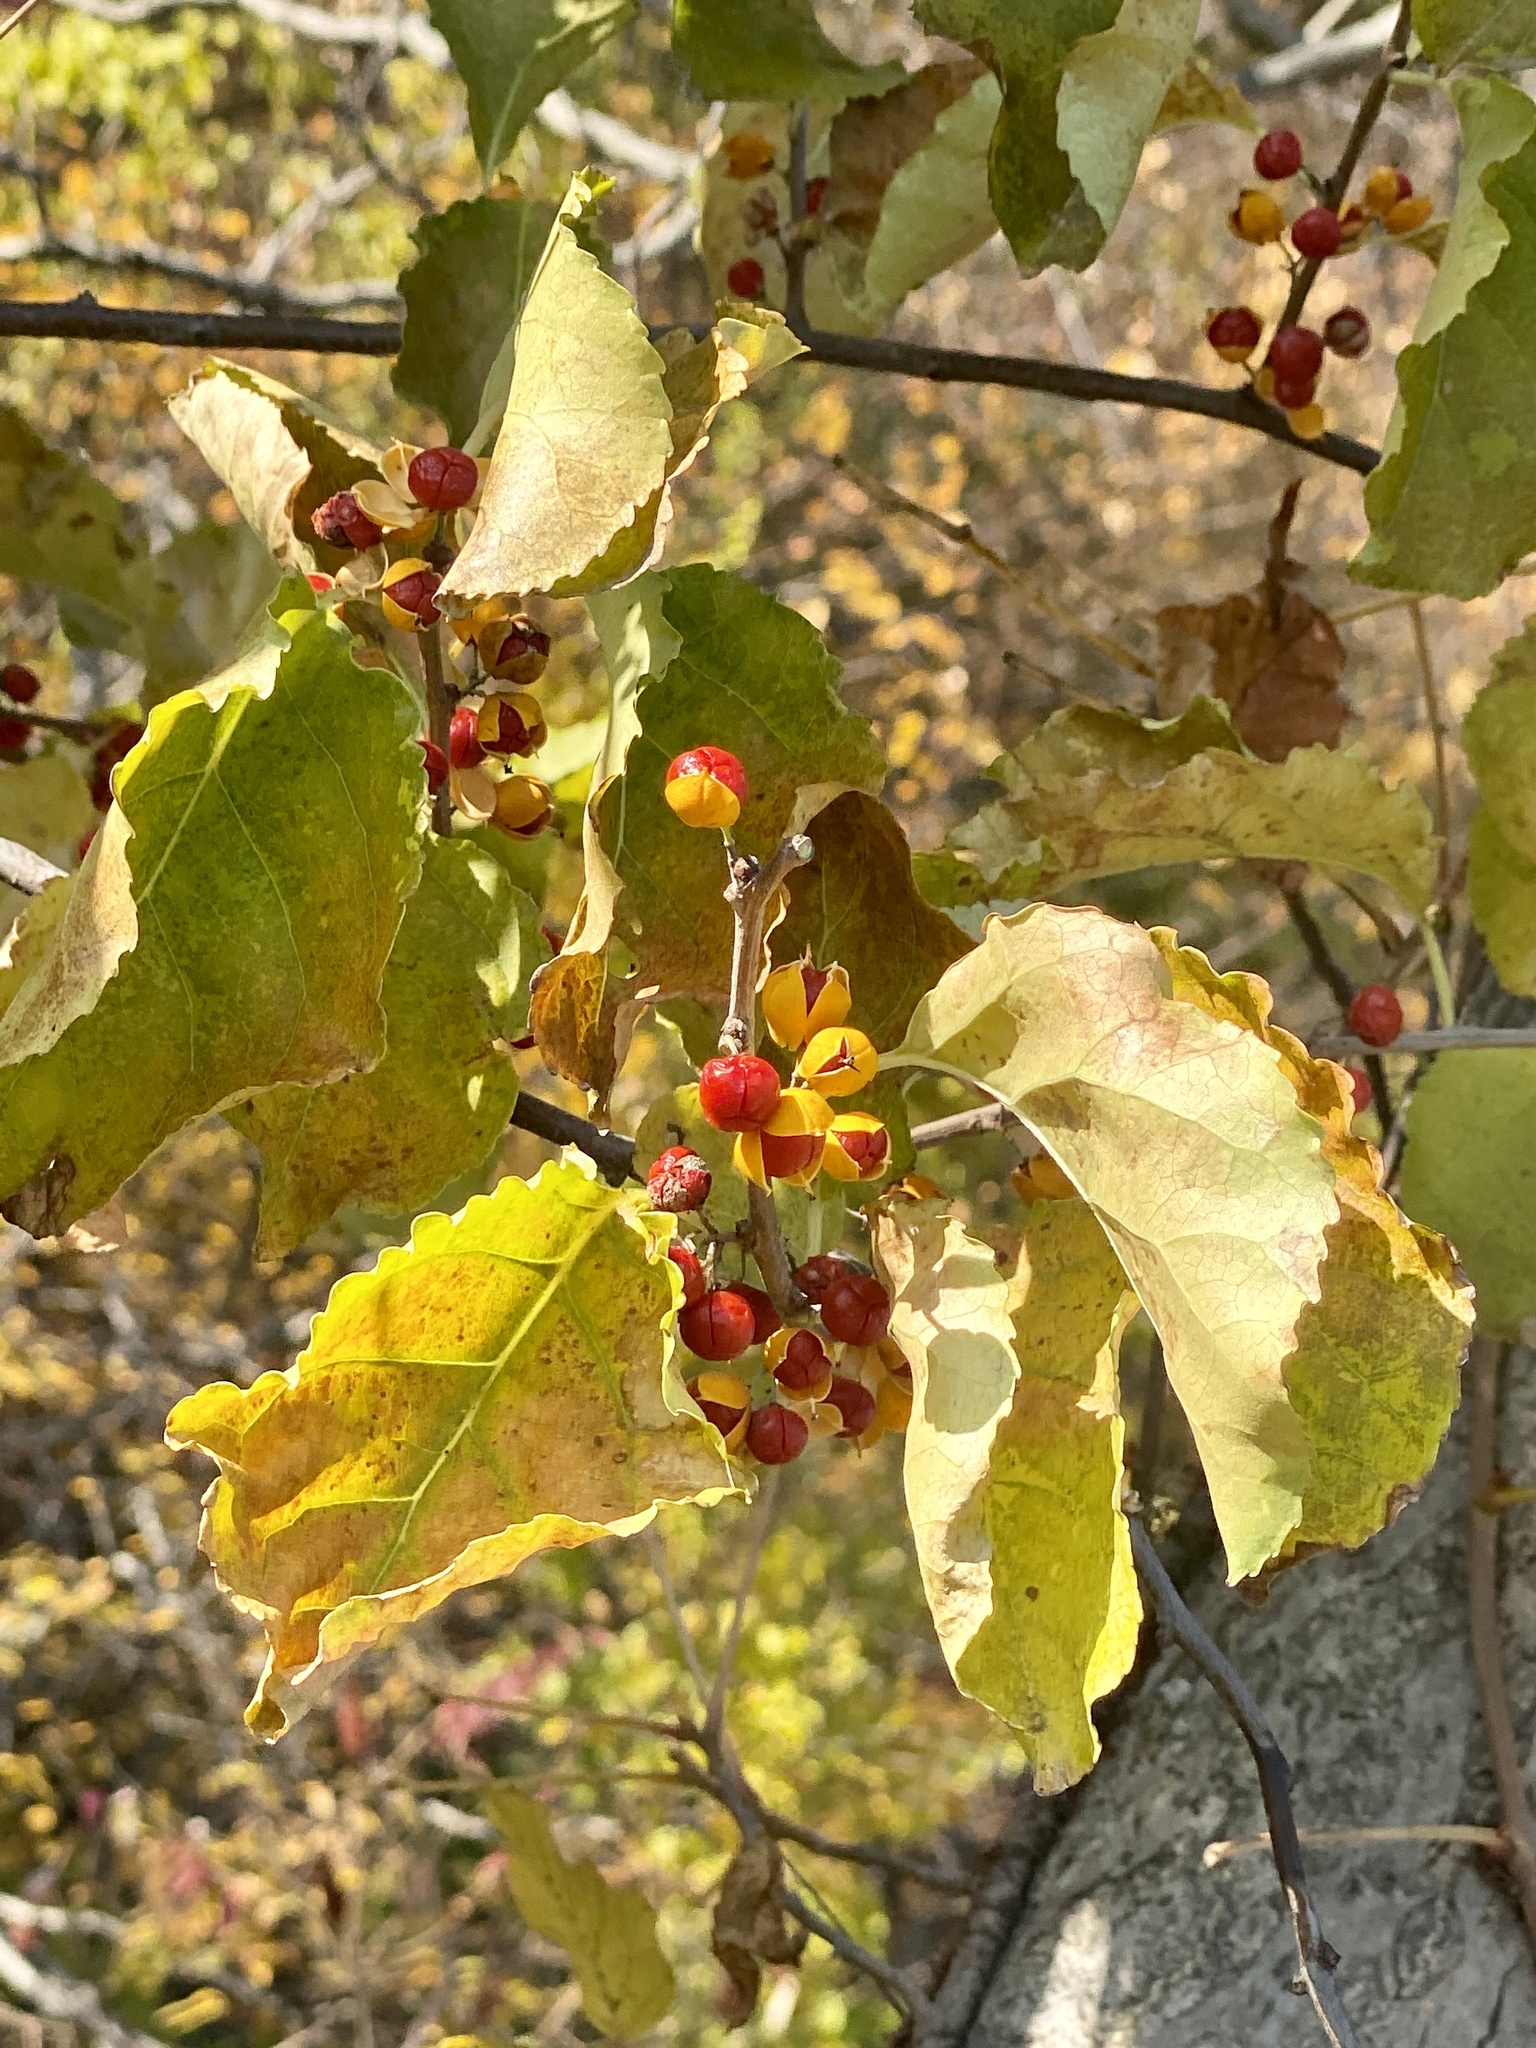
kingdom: Plantae
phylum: Tracheophyta
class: Magnoliopsida
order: Celastrales
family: Celastraceae
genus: Celastrus
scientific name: Celastrus orbiculatus
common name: Oriental bittersweet
